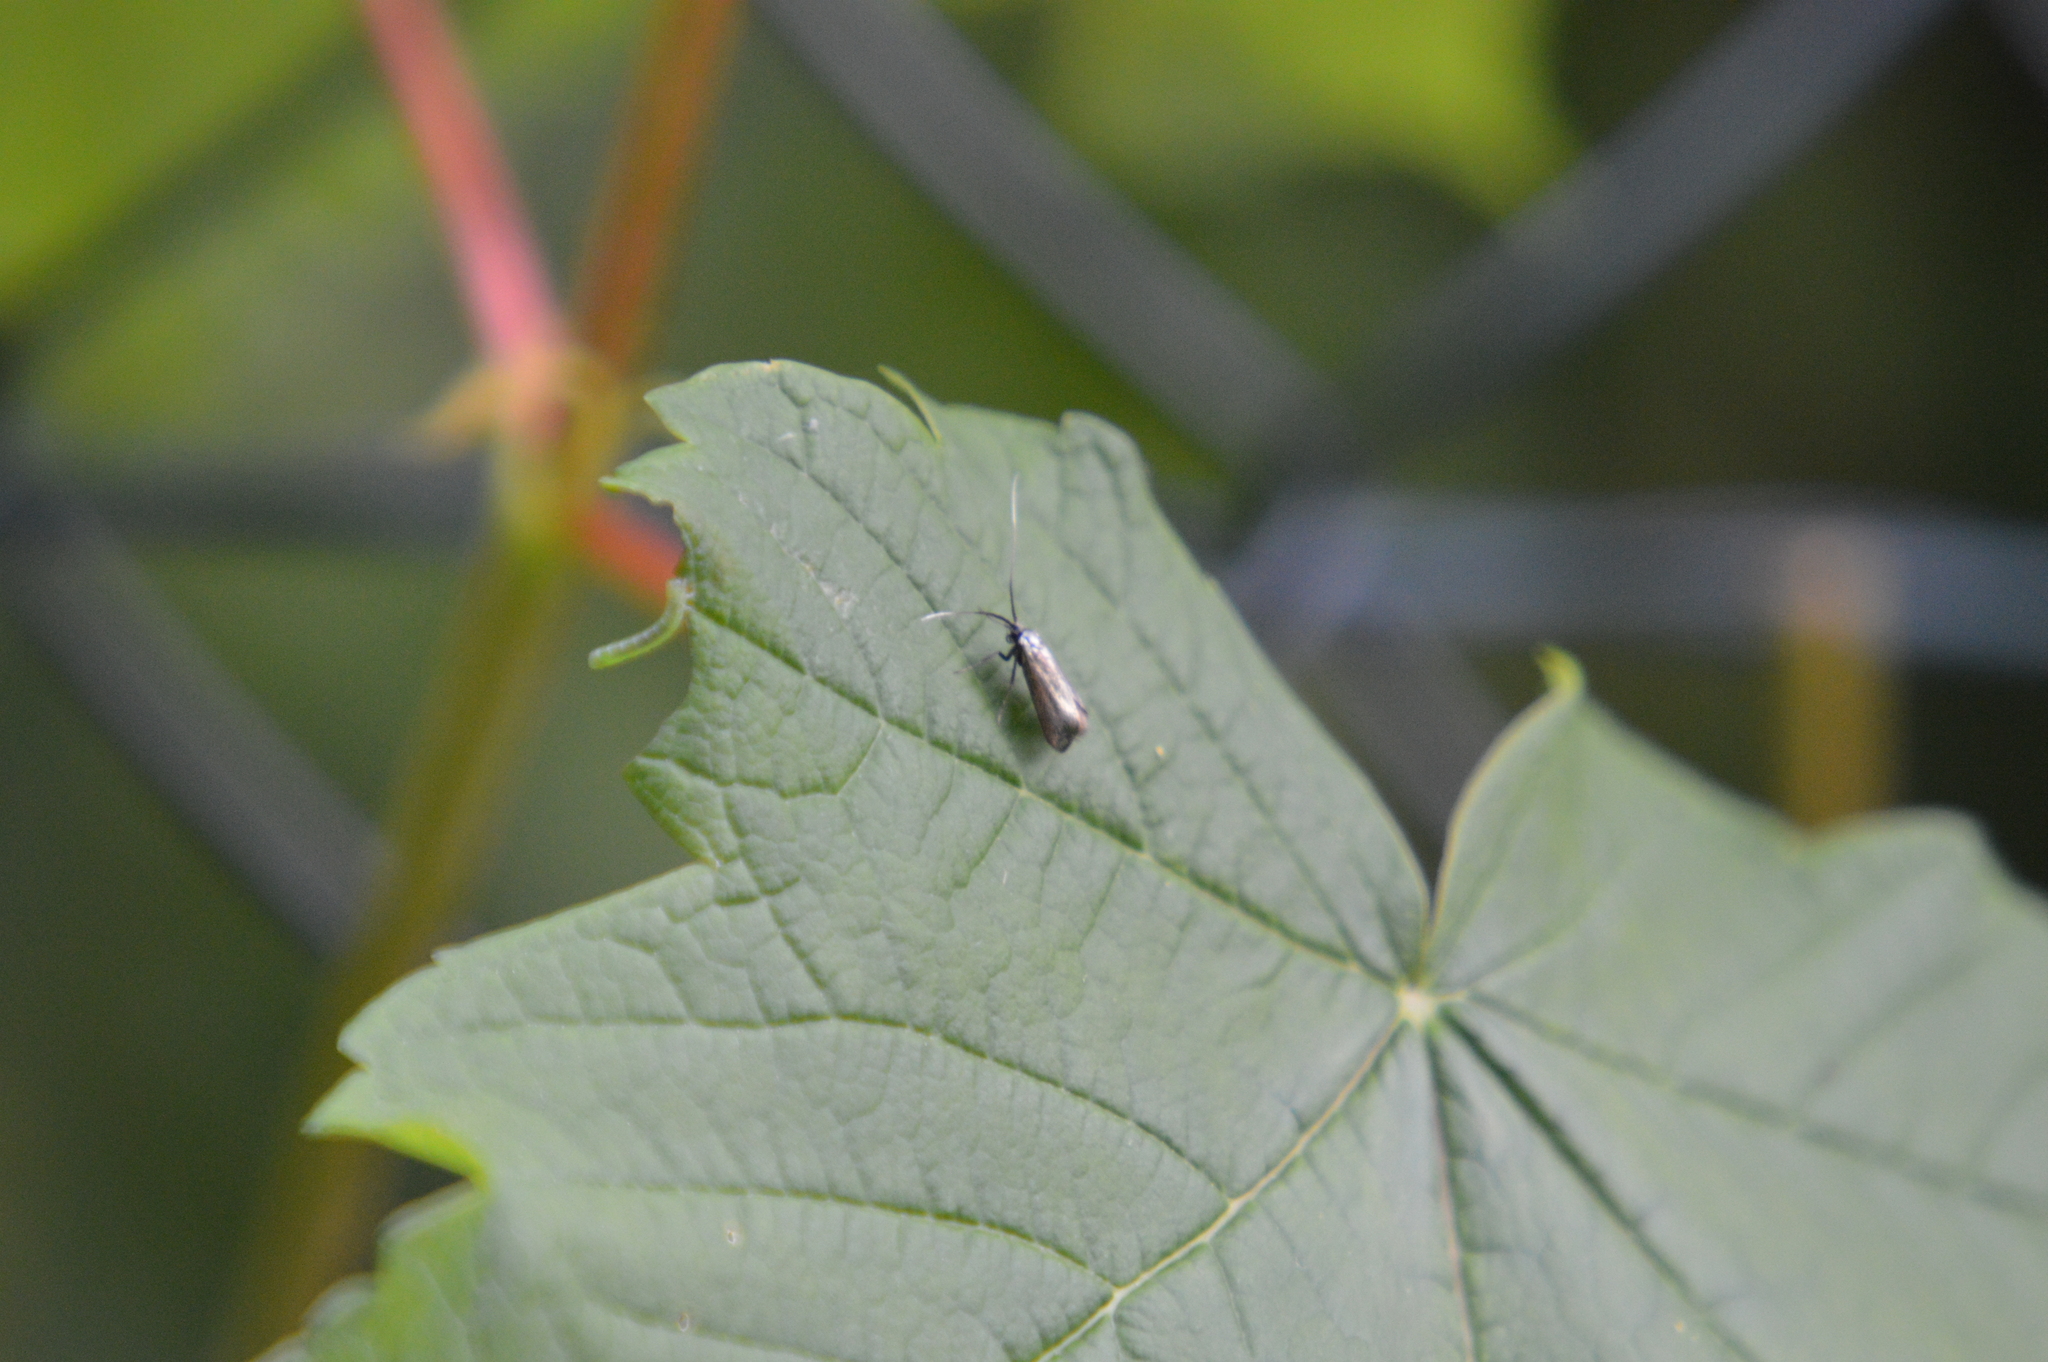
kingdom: Animalia
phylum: Arthropoda
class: Insecta
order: Lepidoptera
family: Adelidae
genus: Adela
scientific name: Adela viridella
